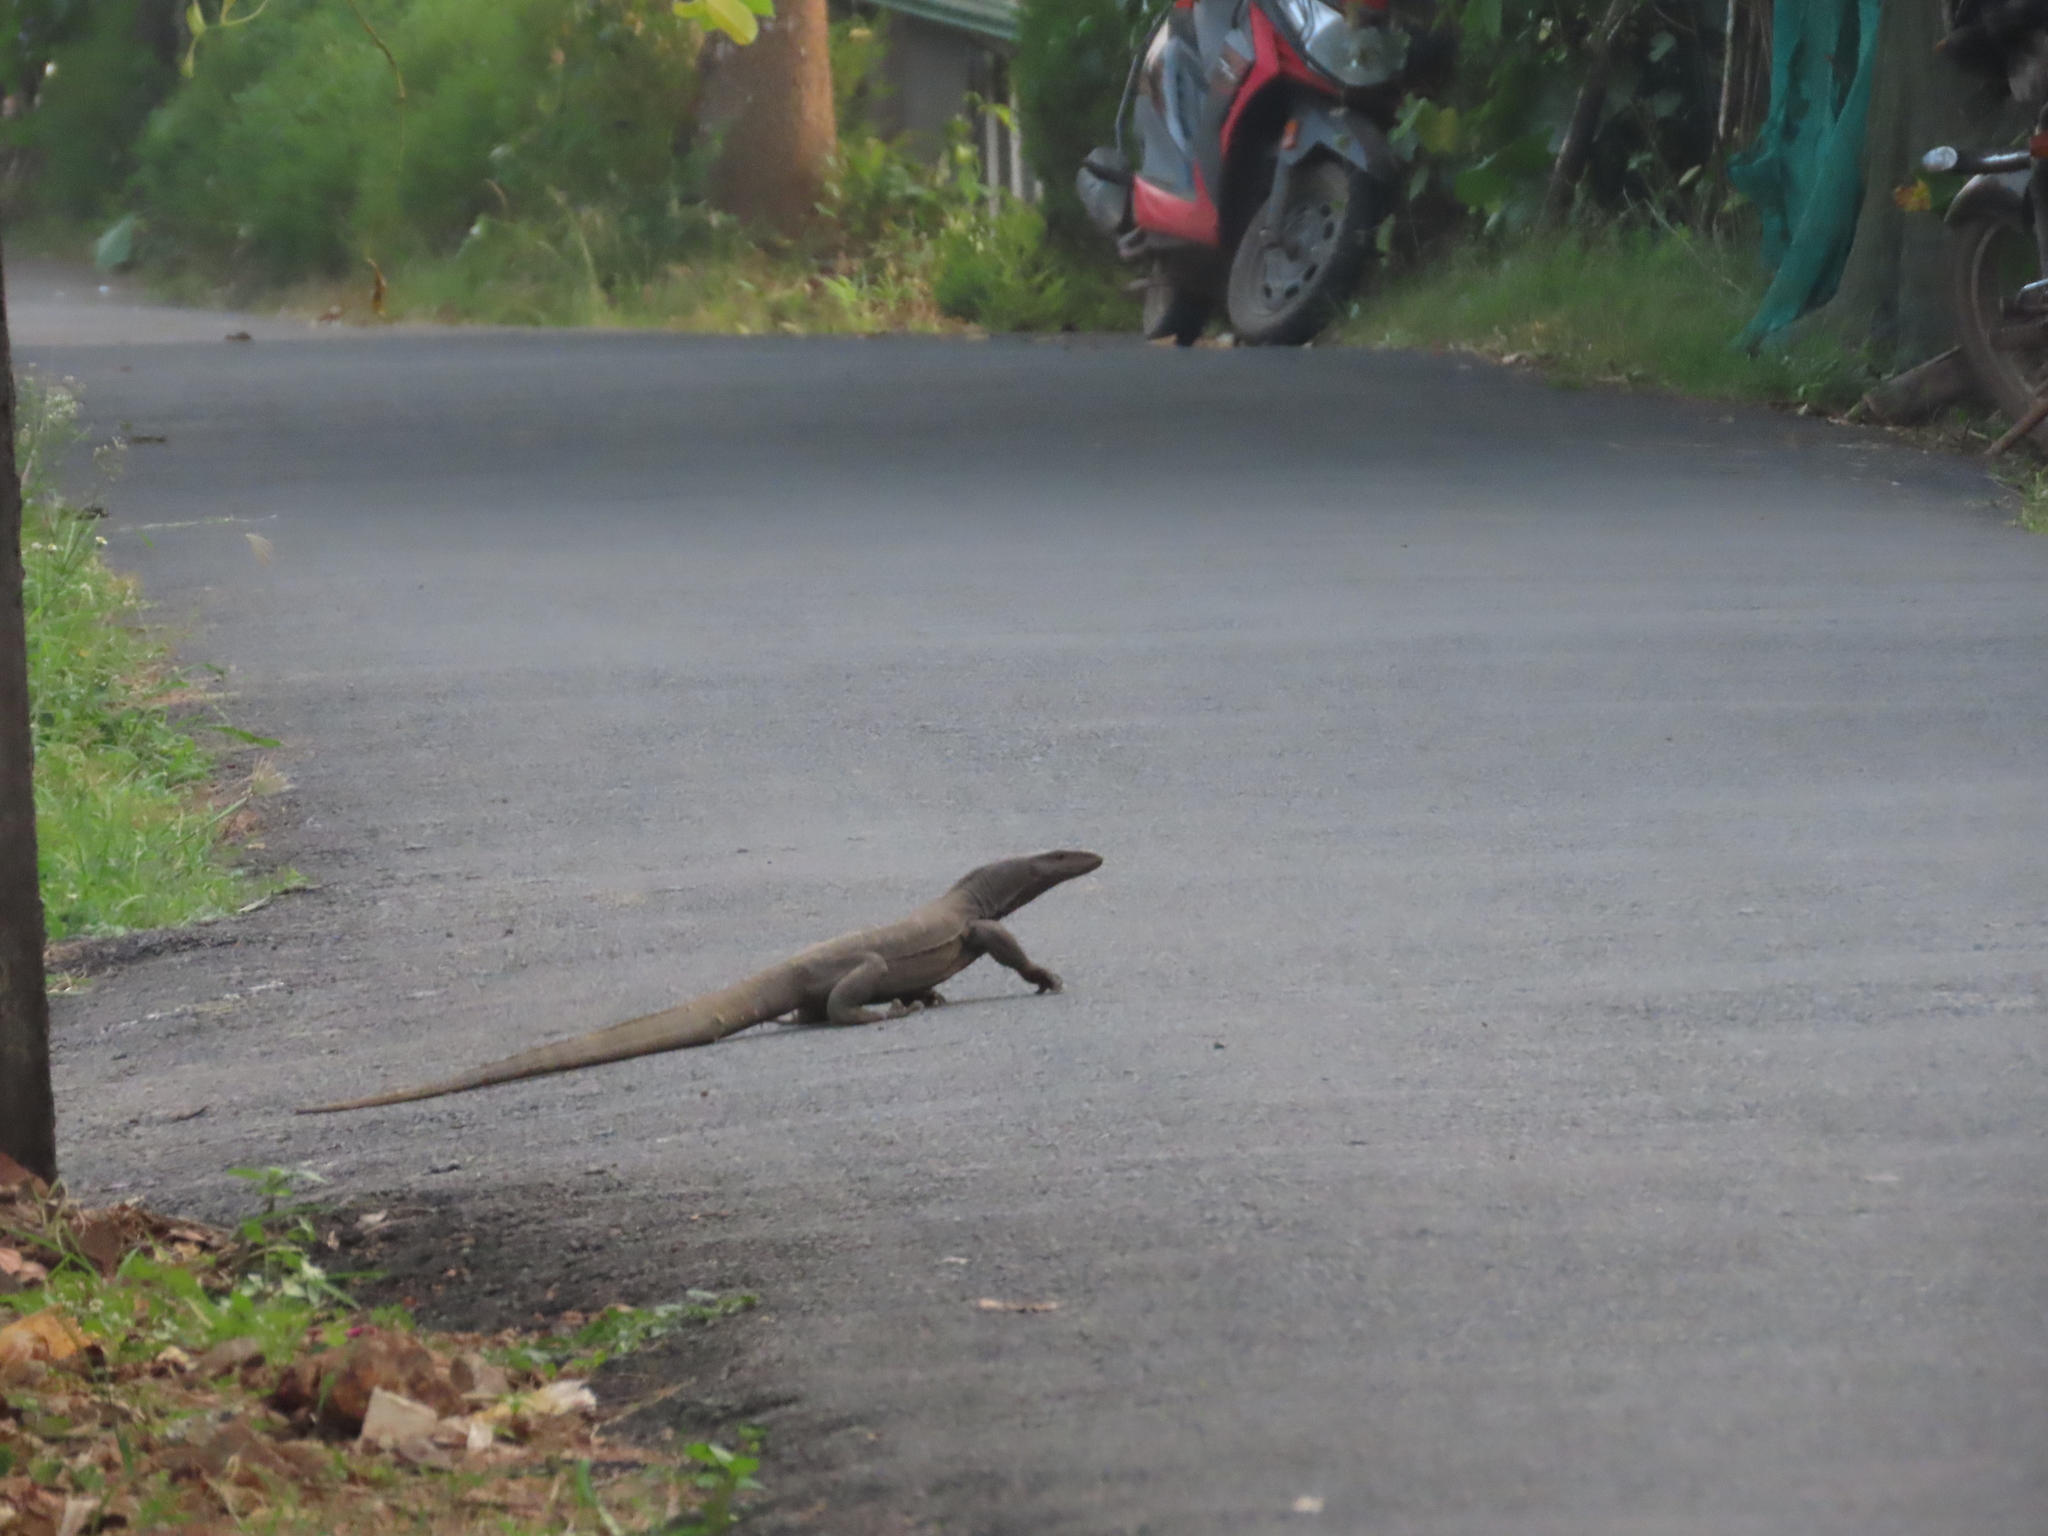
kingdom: Animalia
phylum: Chordata
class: Squamata
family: Varanidae
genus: Varanus
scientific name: Varanus bengalensis
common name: Bengal monitor
